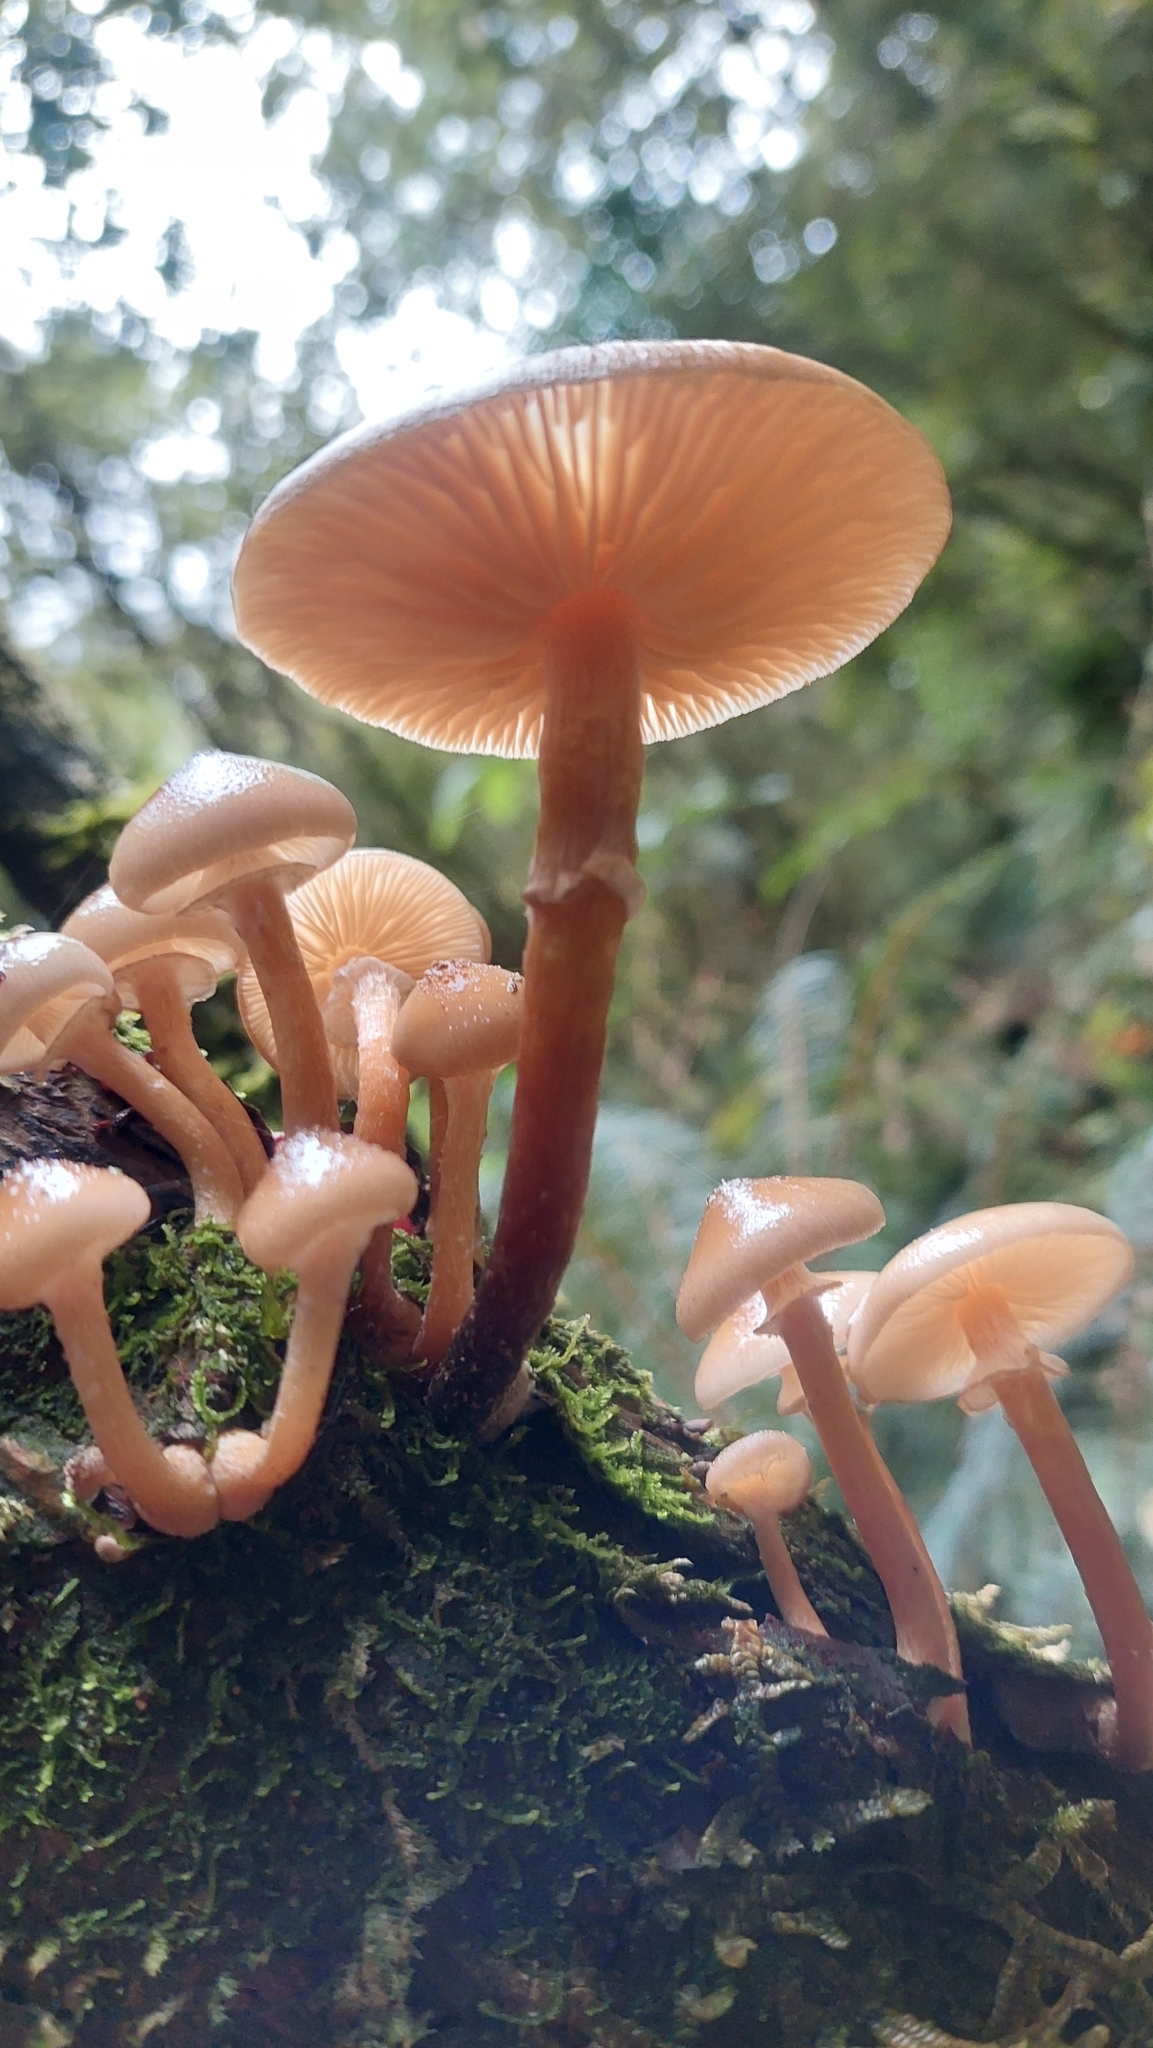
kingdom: Fungi
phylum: Basidiomycota
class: Agaricomycetes
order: Agaricales
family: Physalacriaceae
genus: Armillaria
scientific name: Armillaria novae-zelandiae
